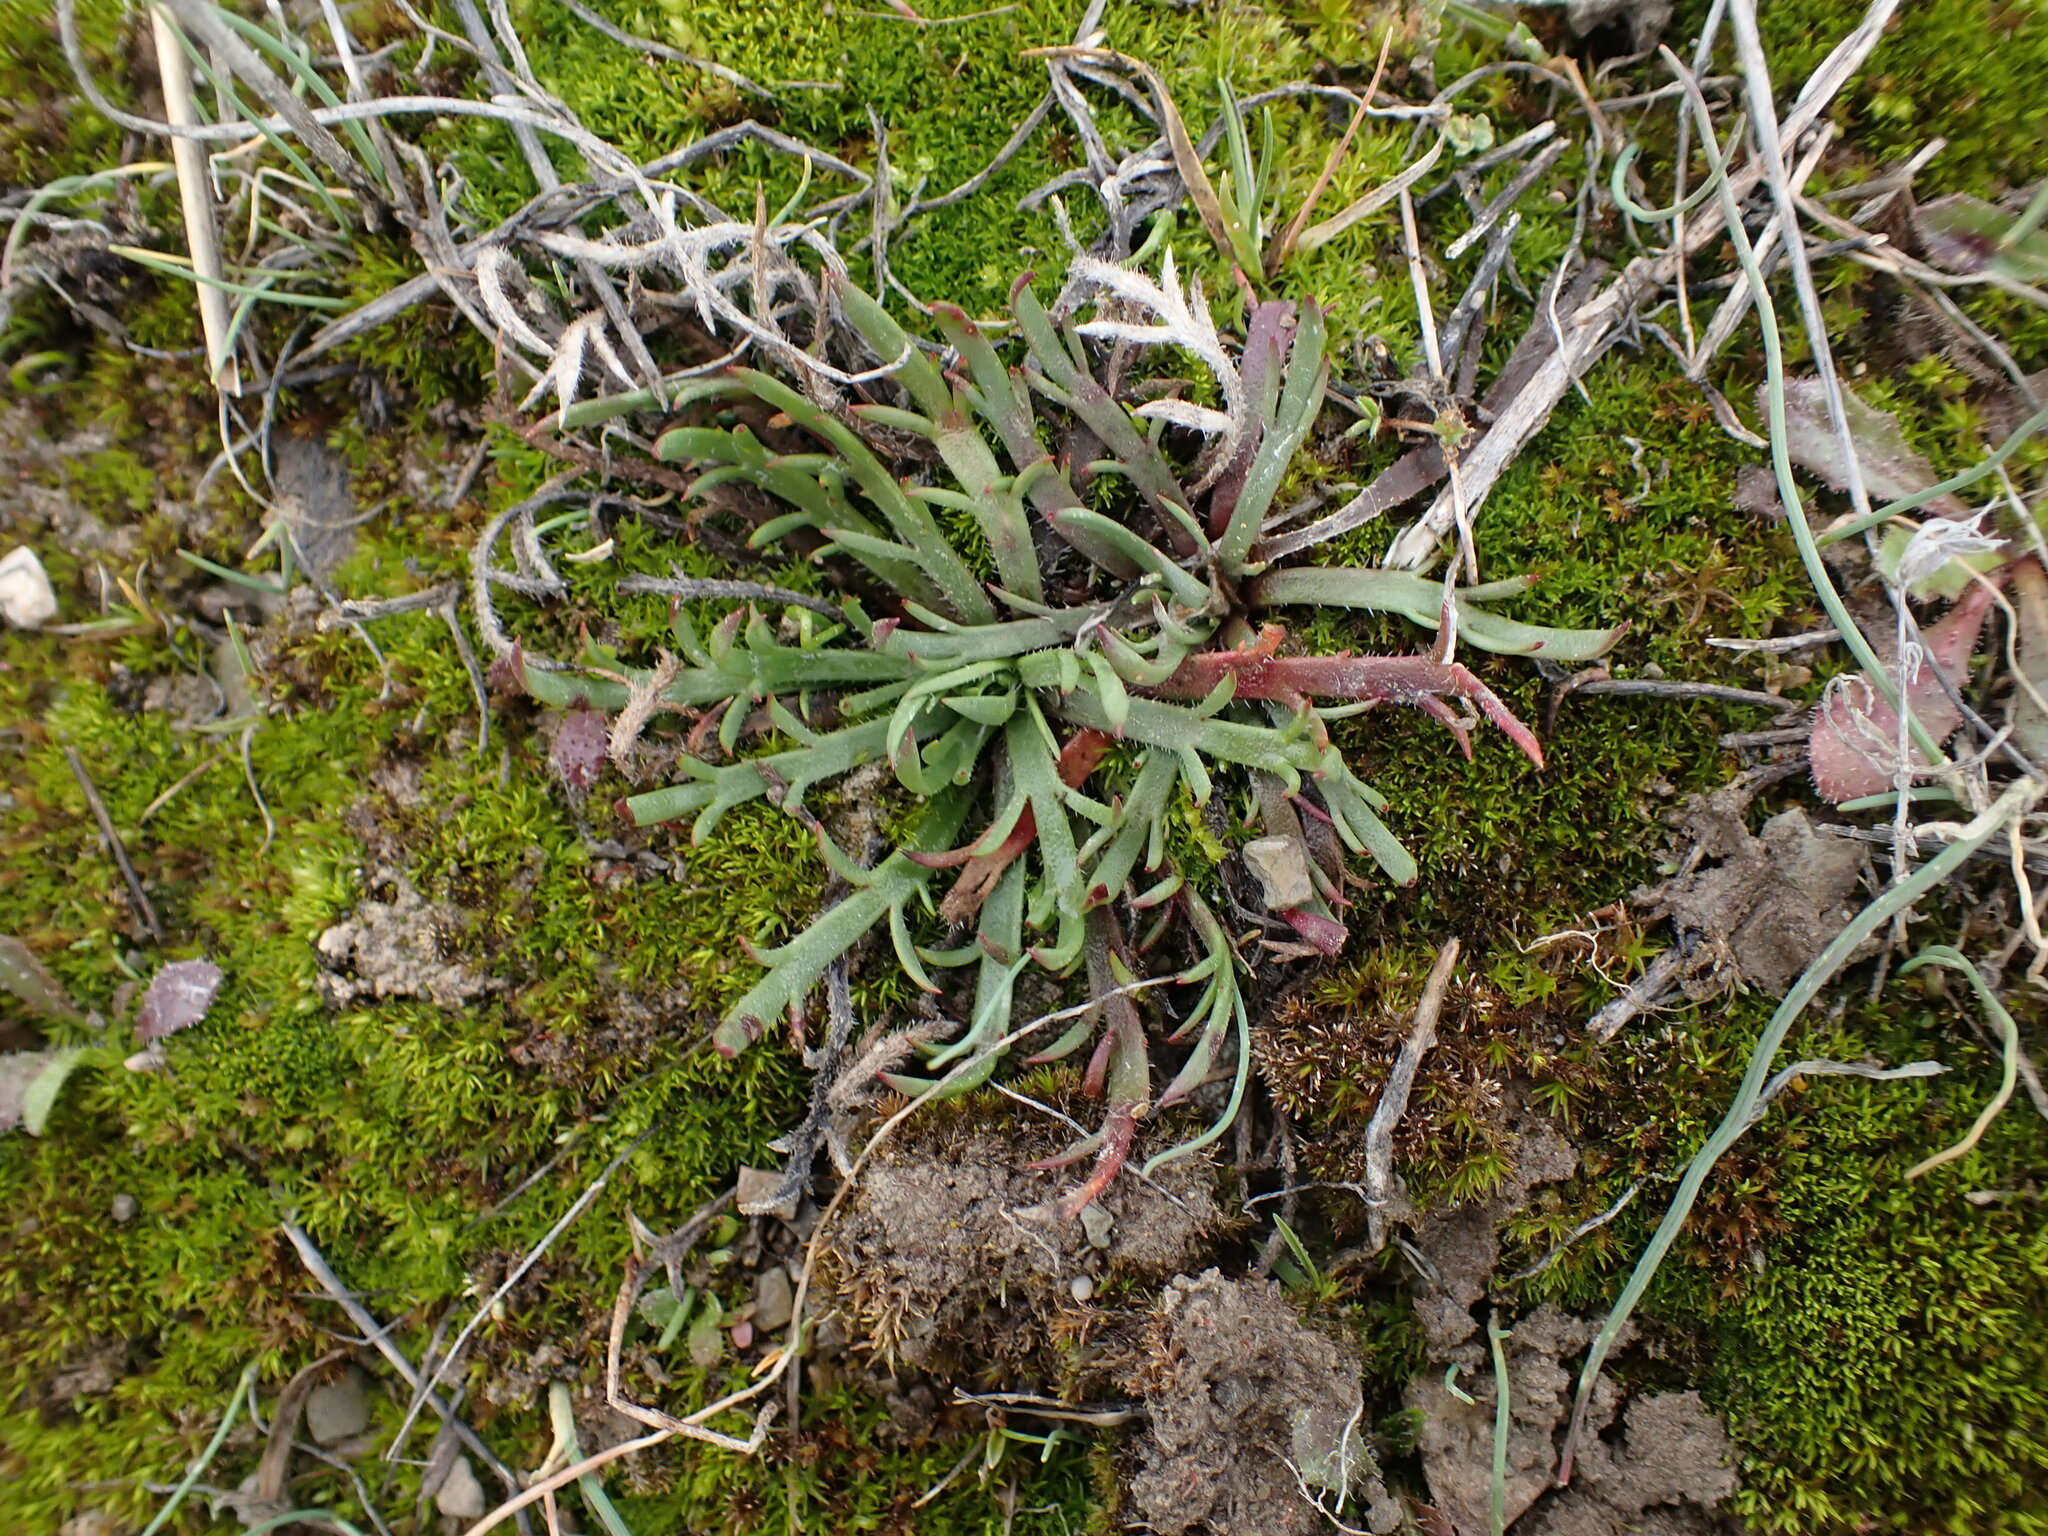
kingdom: Plantae
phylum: Tracheophyta
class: Magnoliopsida
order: Lamiales
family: Plantaginaceae
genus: Plantago
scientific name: Plantago coronopus
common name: Buck's-horn plantain
